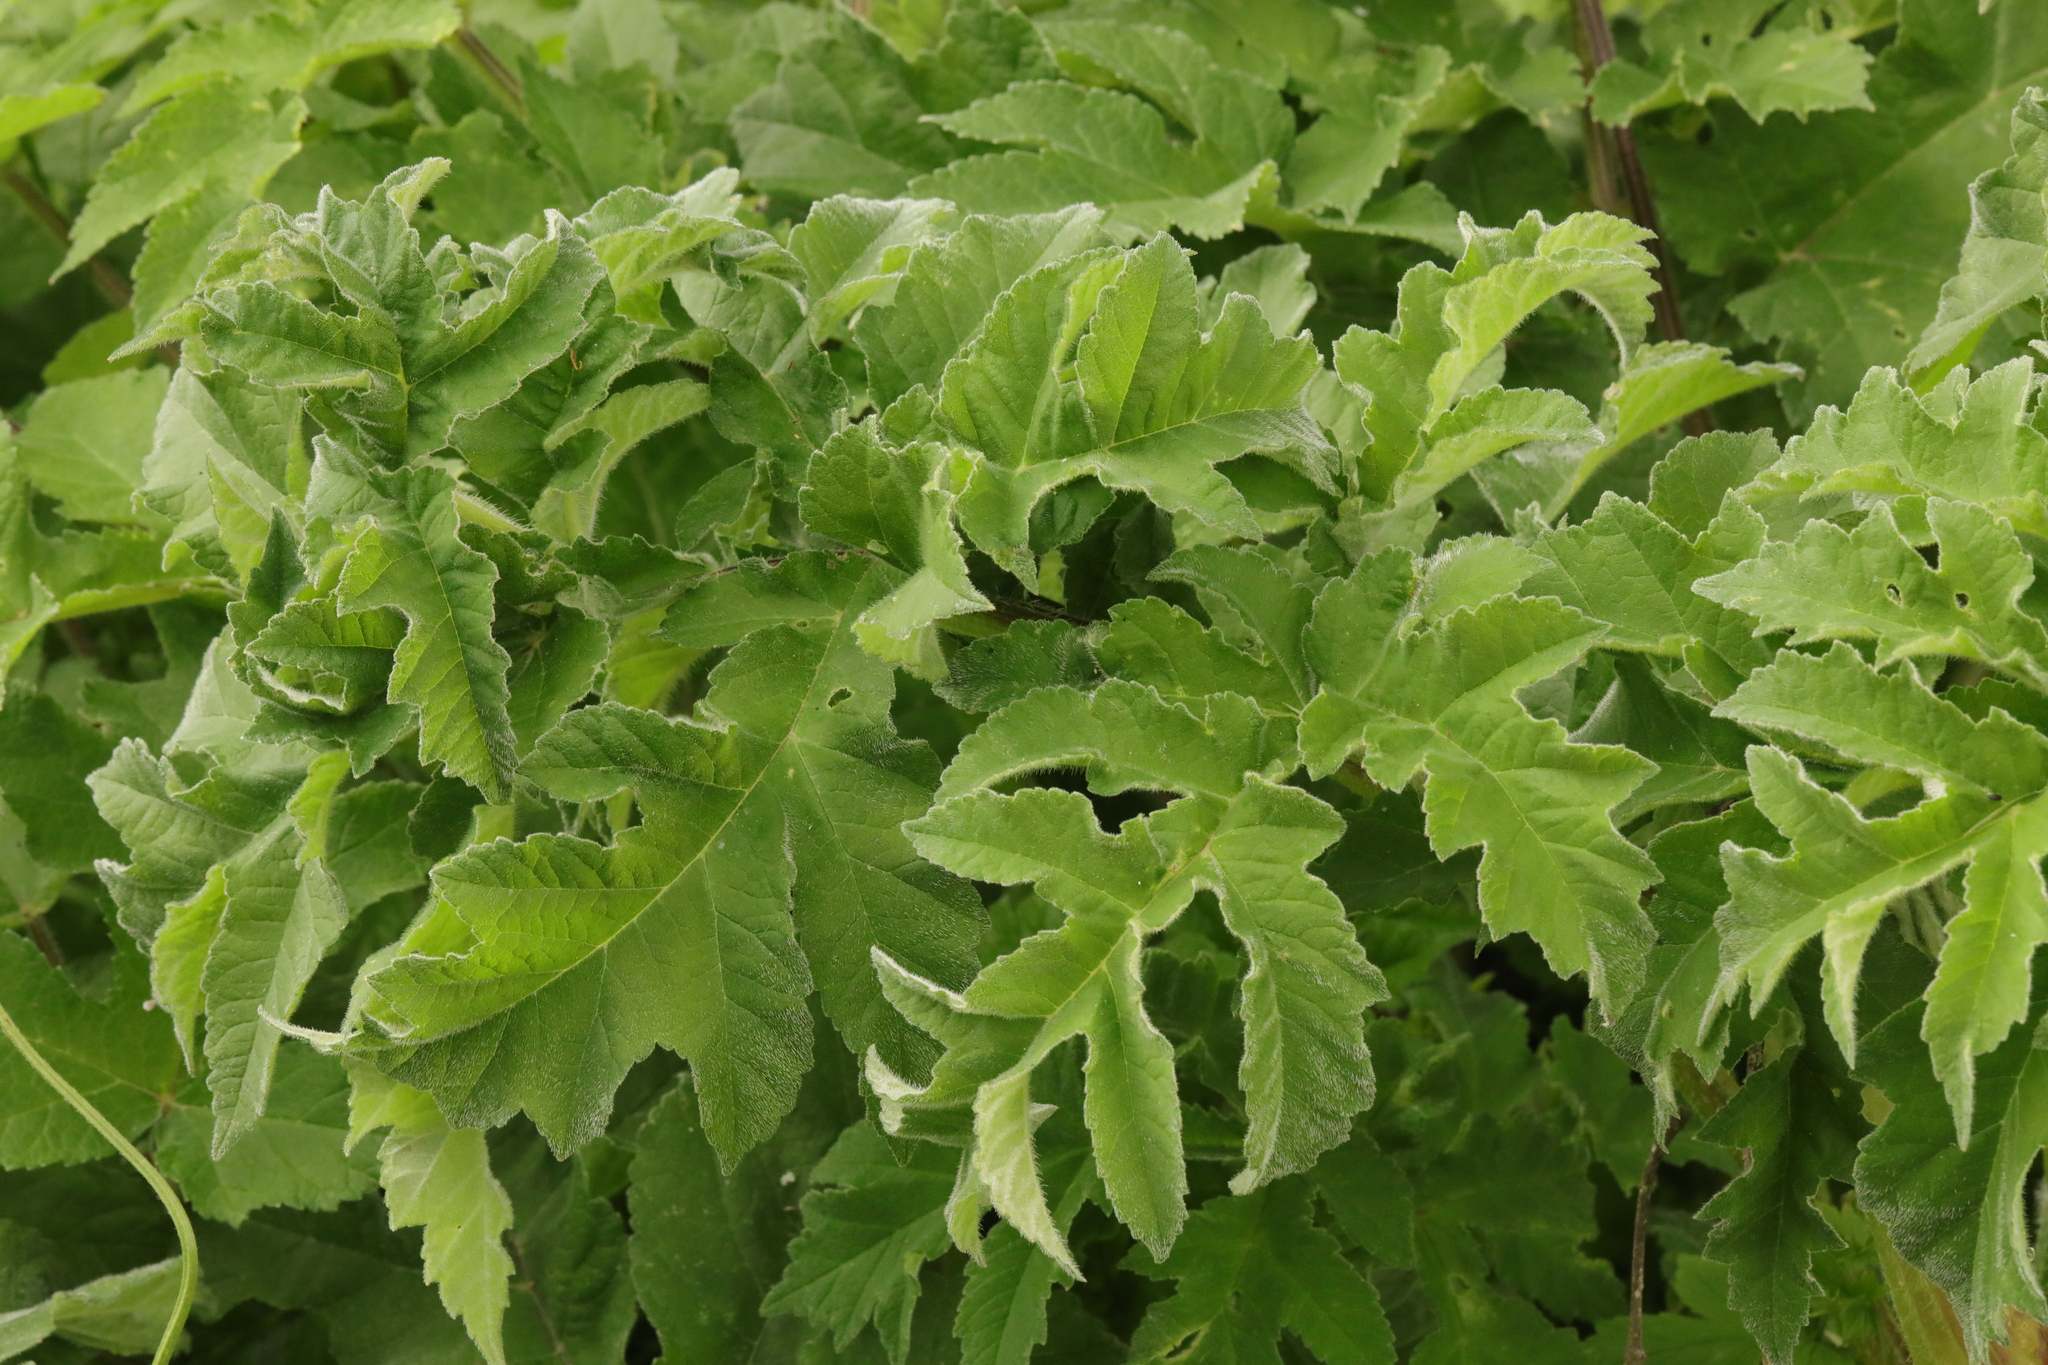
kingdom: Plantae
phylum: Tracheophyta
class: Magnoliopsida
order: Apiales
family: Apiaceae
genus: Heracleum
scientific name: Heracleum sphondylium
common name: Hogweed
